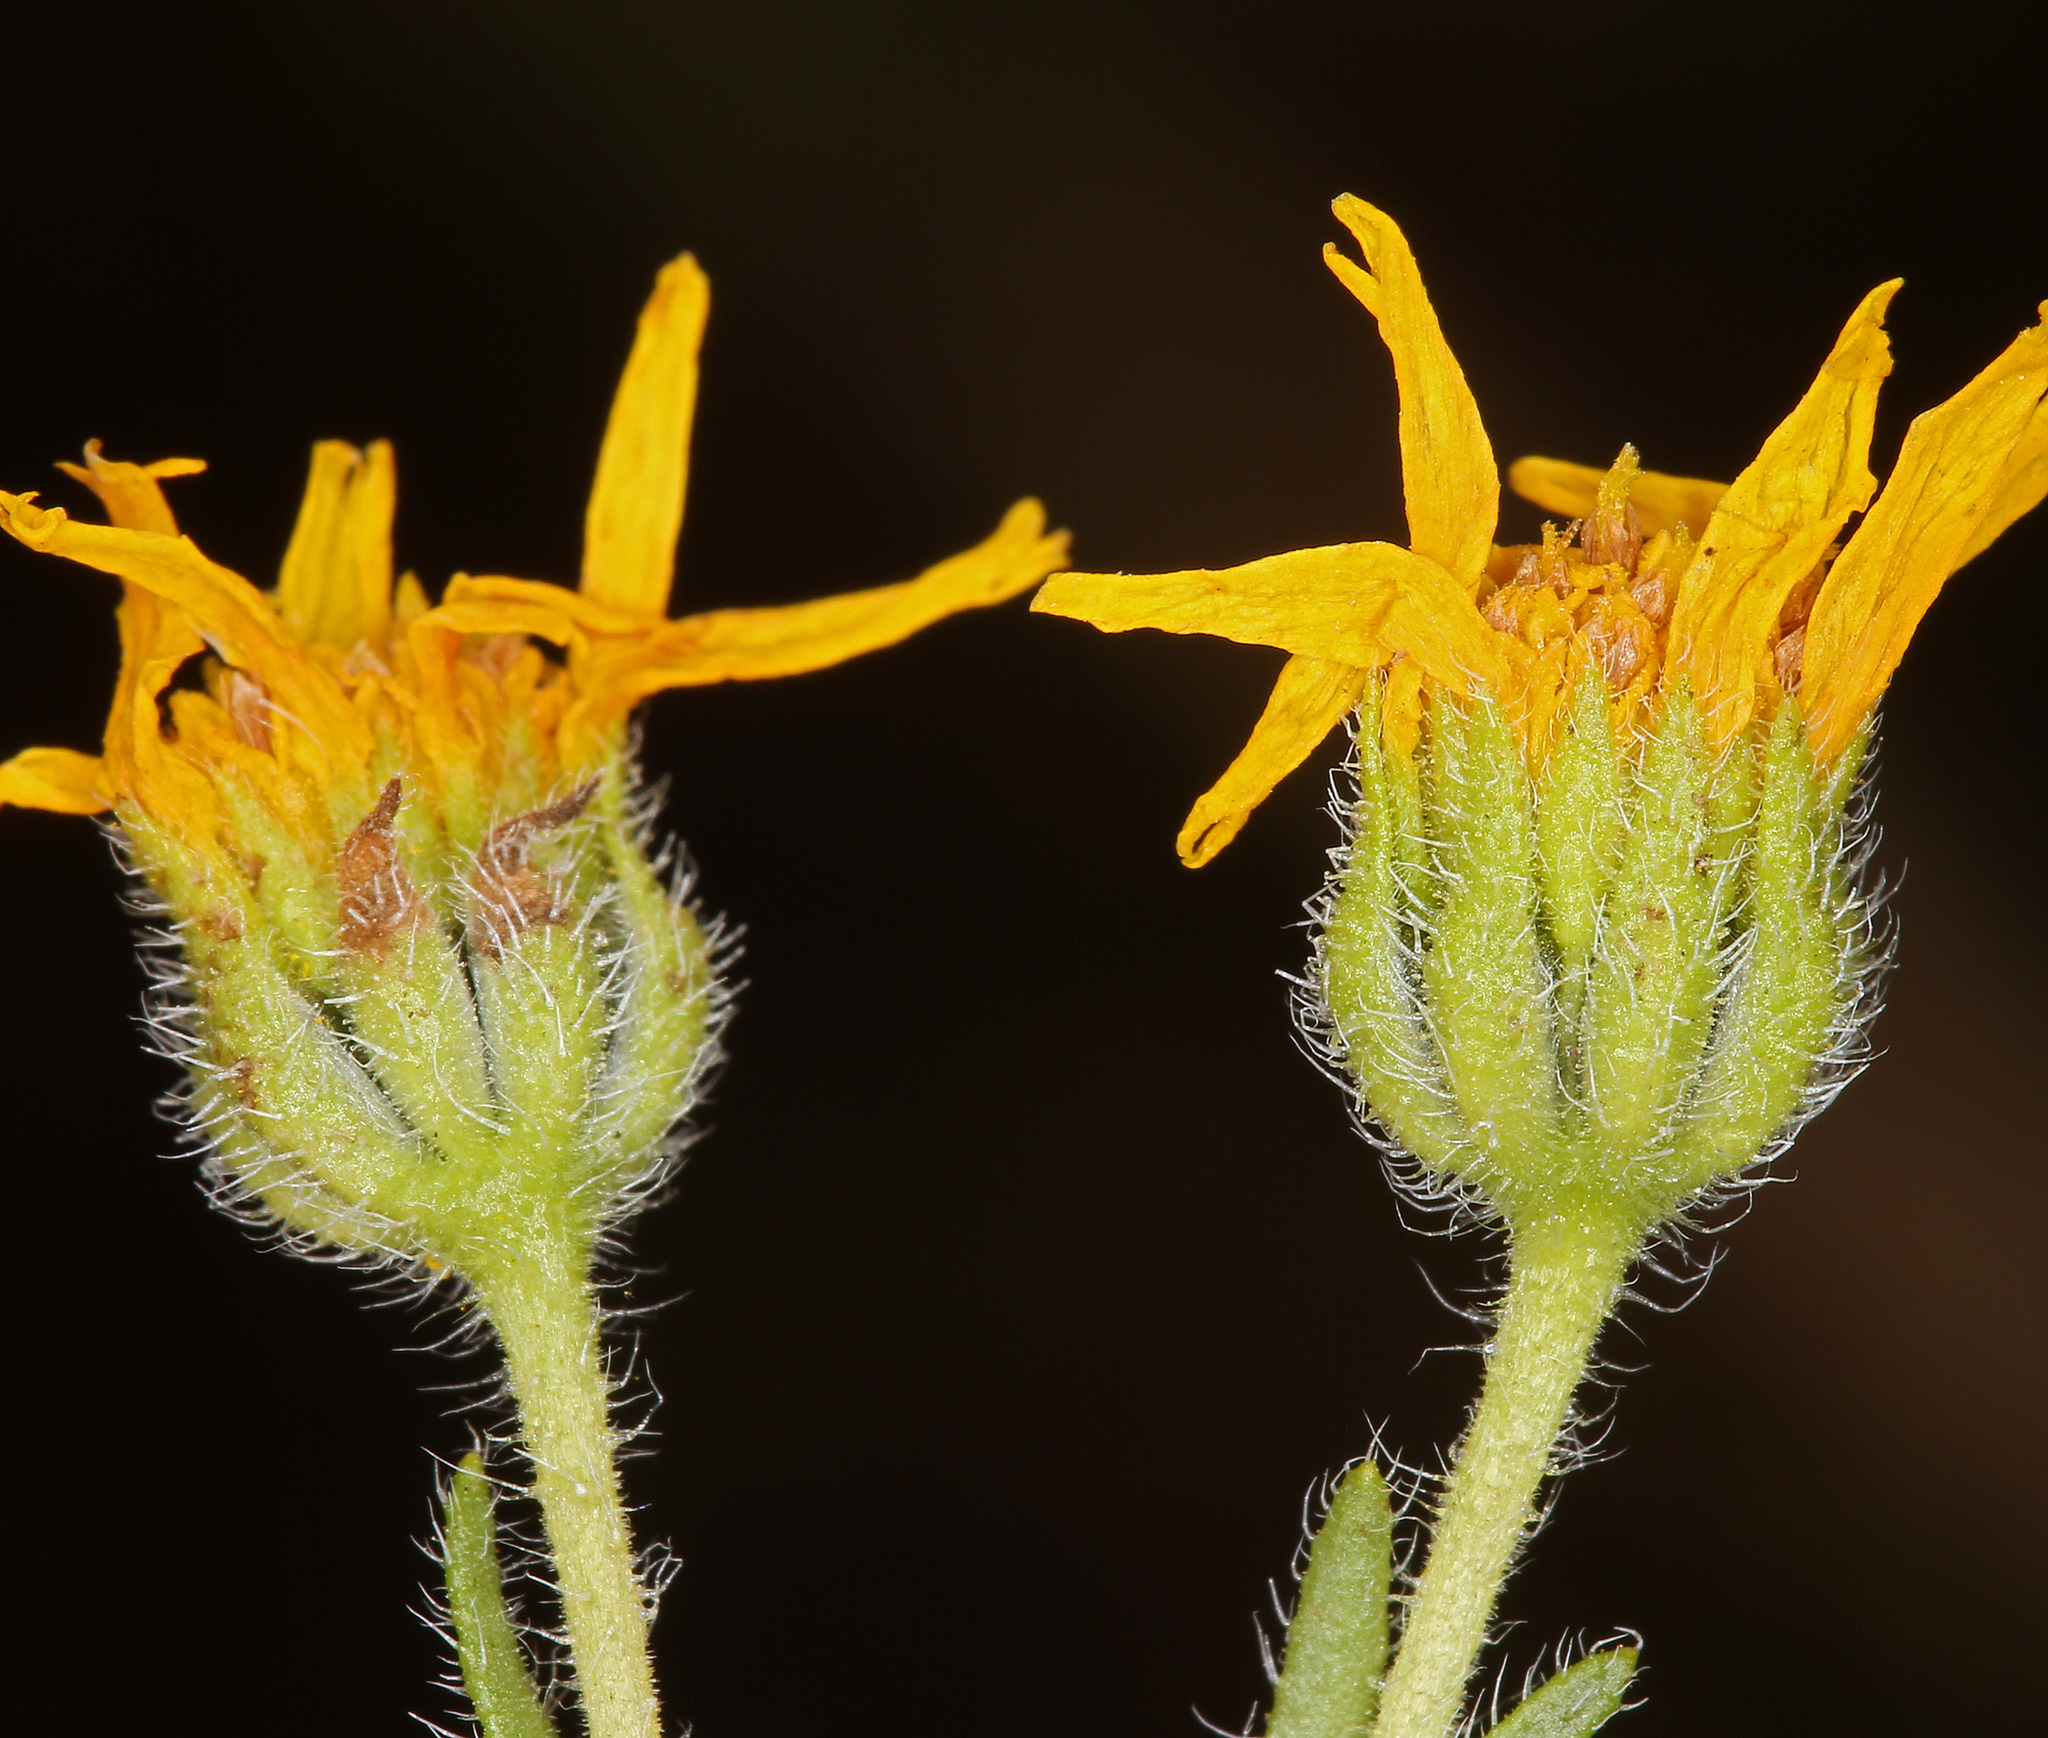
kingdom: Plantae
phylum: Tracheophyta
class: Magnoliopsida
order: Asterales
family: Asteraceae
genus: Deinandra
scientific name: Deinandra pallida
